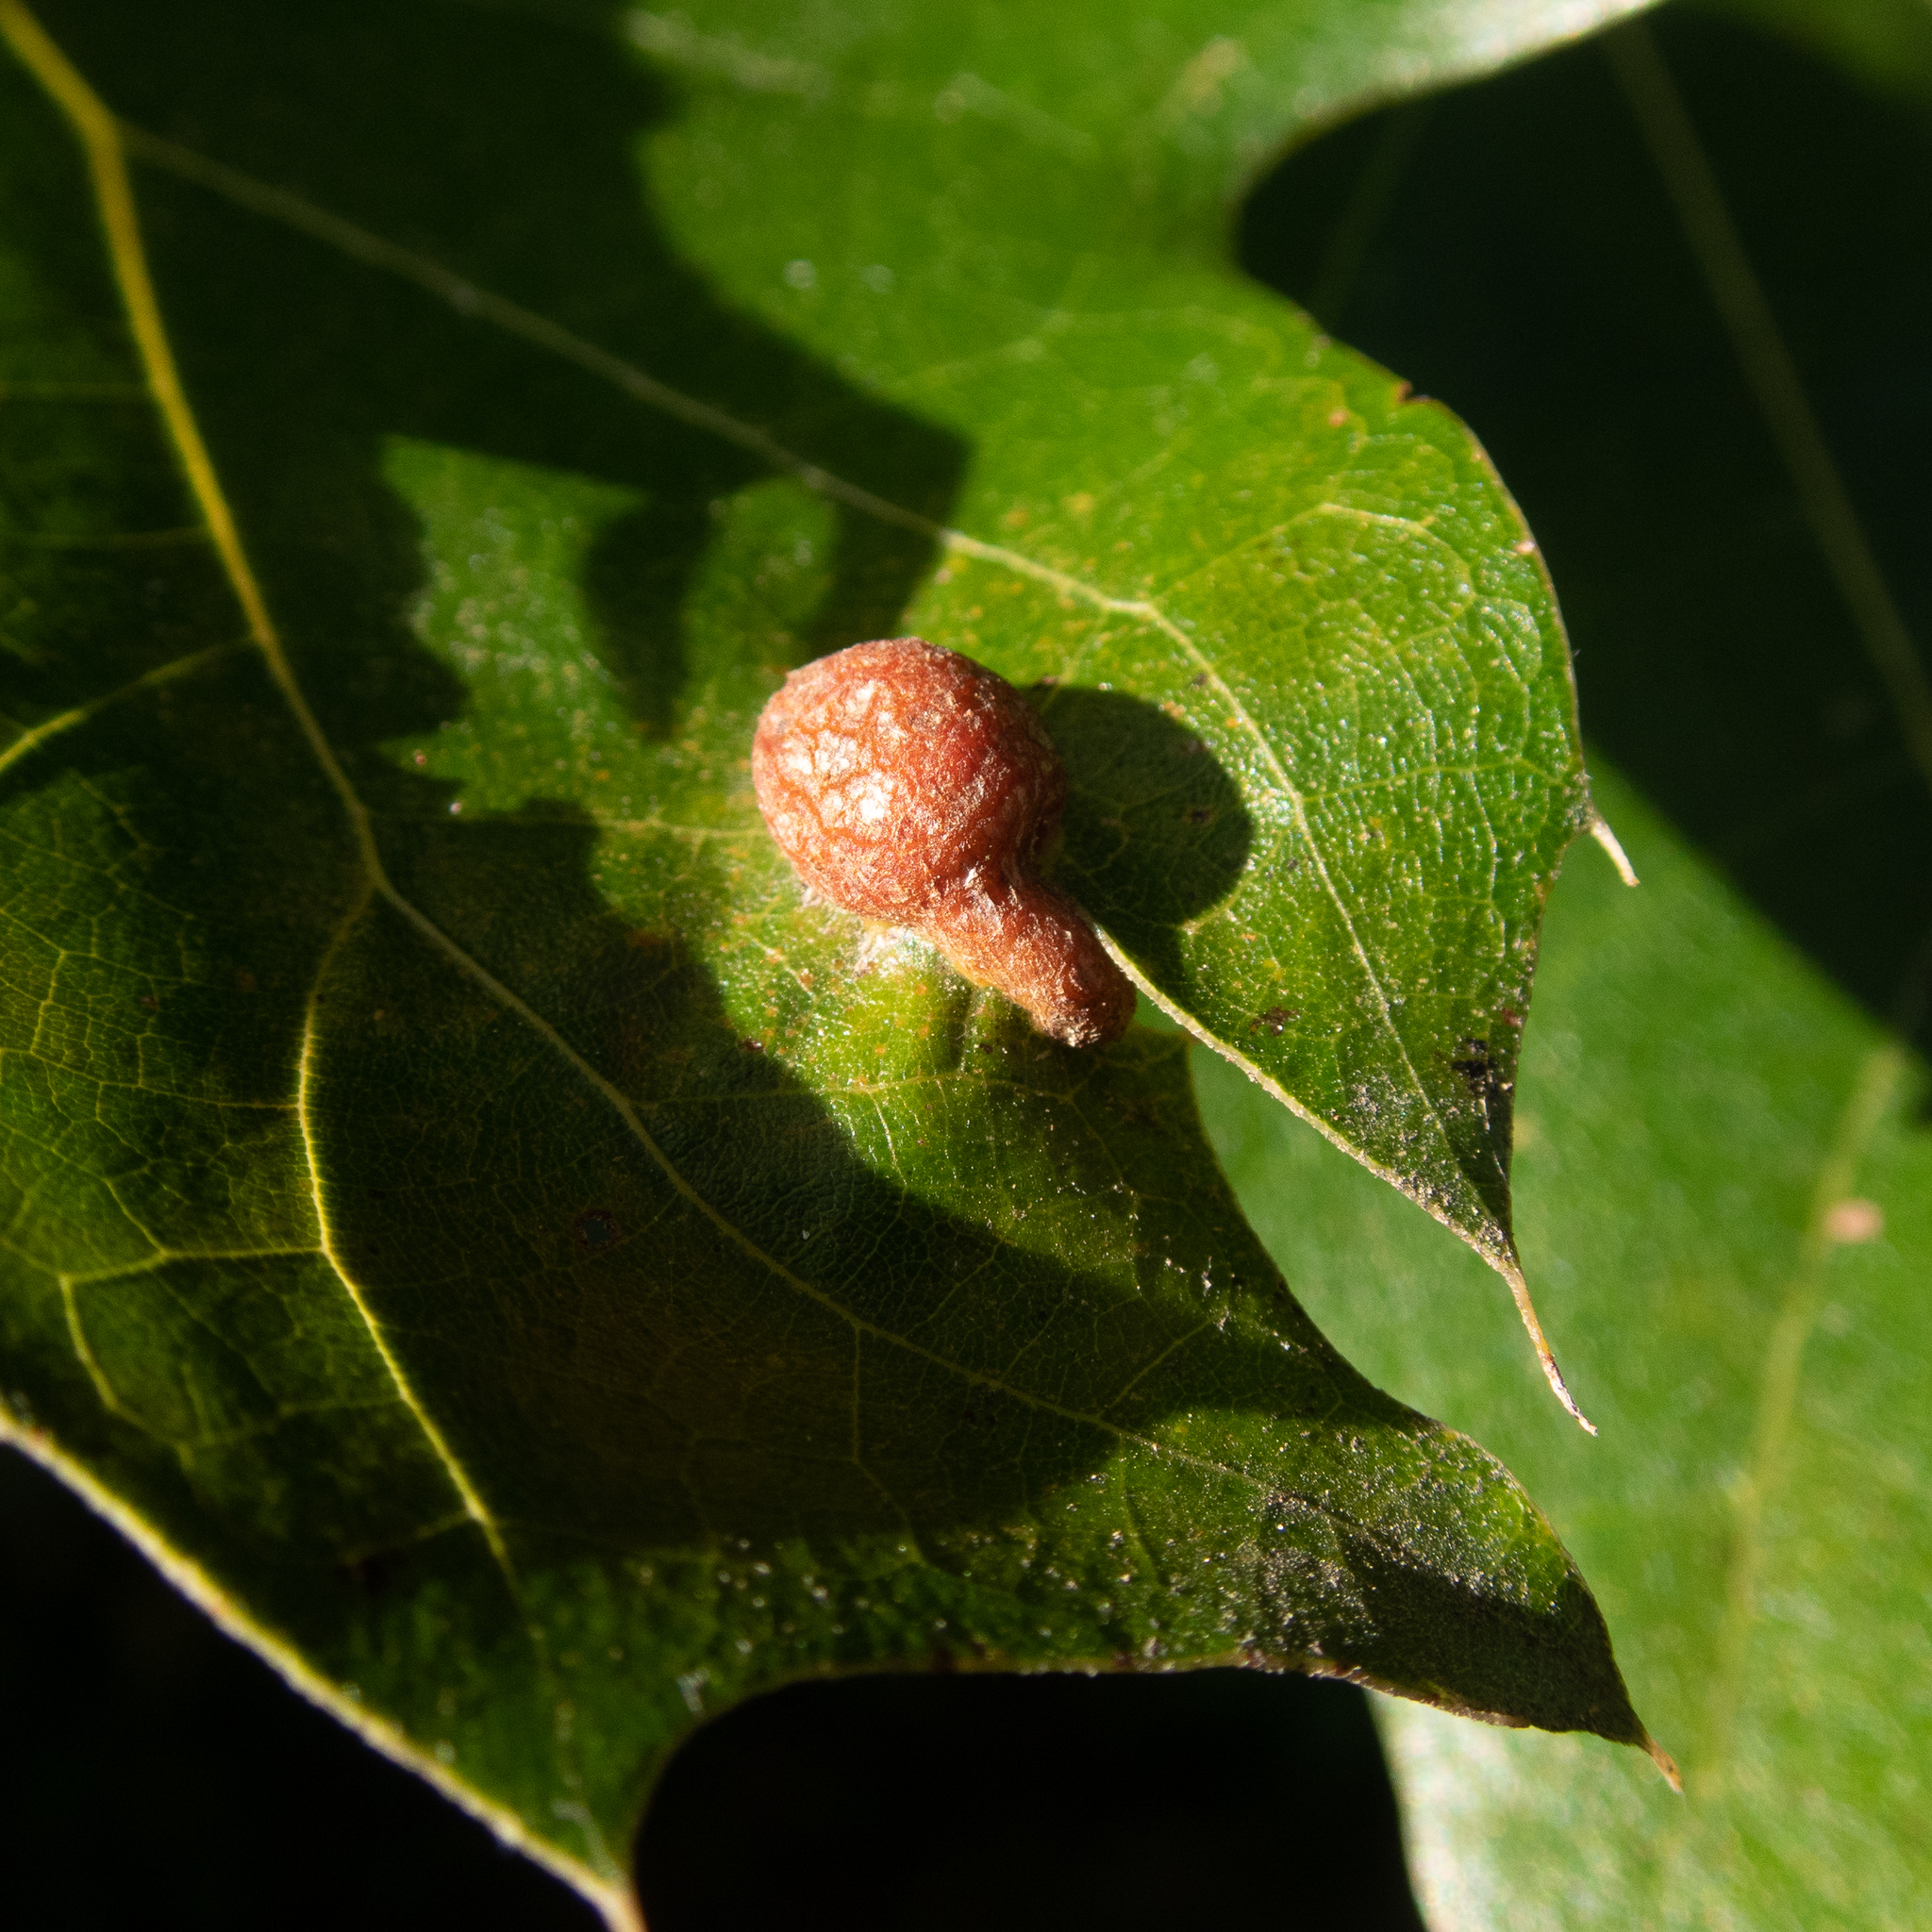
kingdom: Animalia
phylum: Arthropoda
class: Insecta
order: Diptera
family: Cecidomyiidae
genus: Polystepha
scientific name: Polystepha pilulae
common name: Oak leaf gall midge
